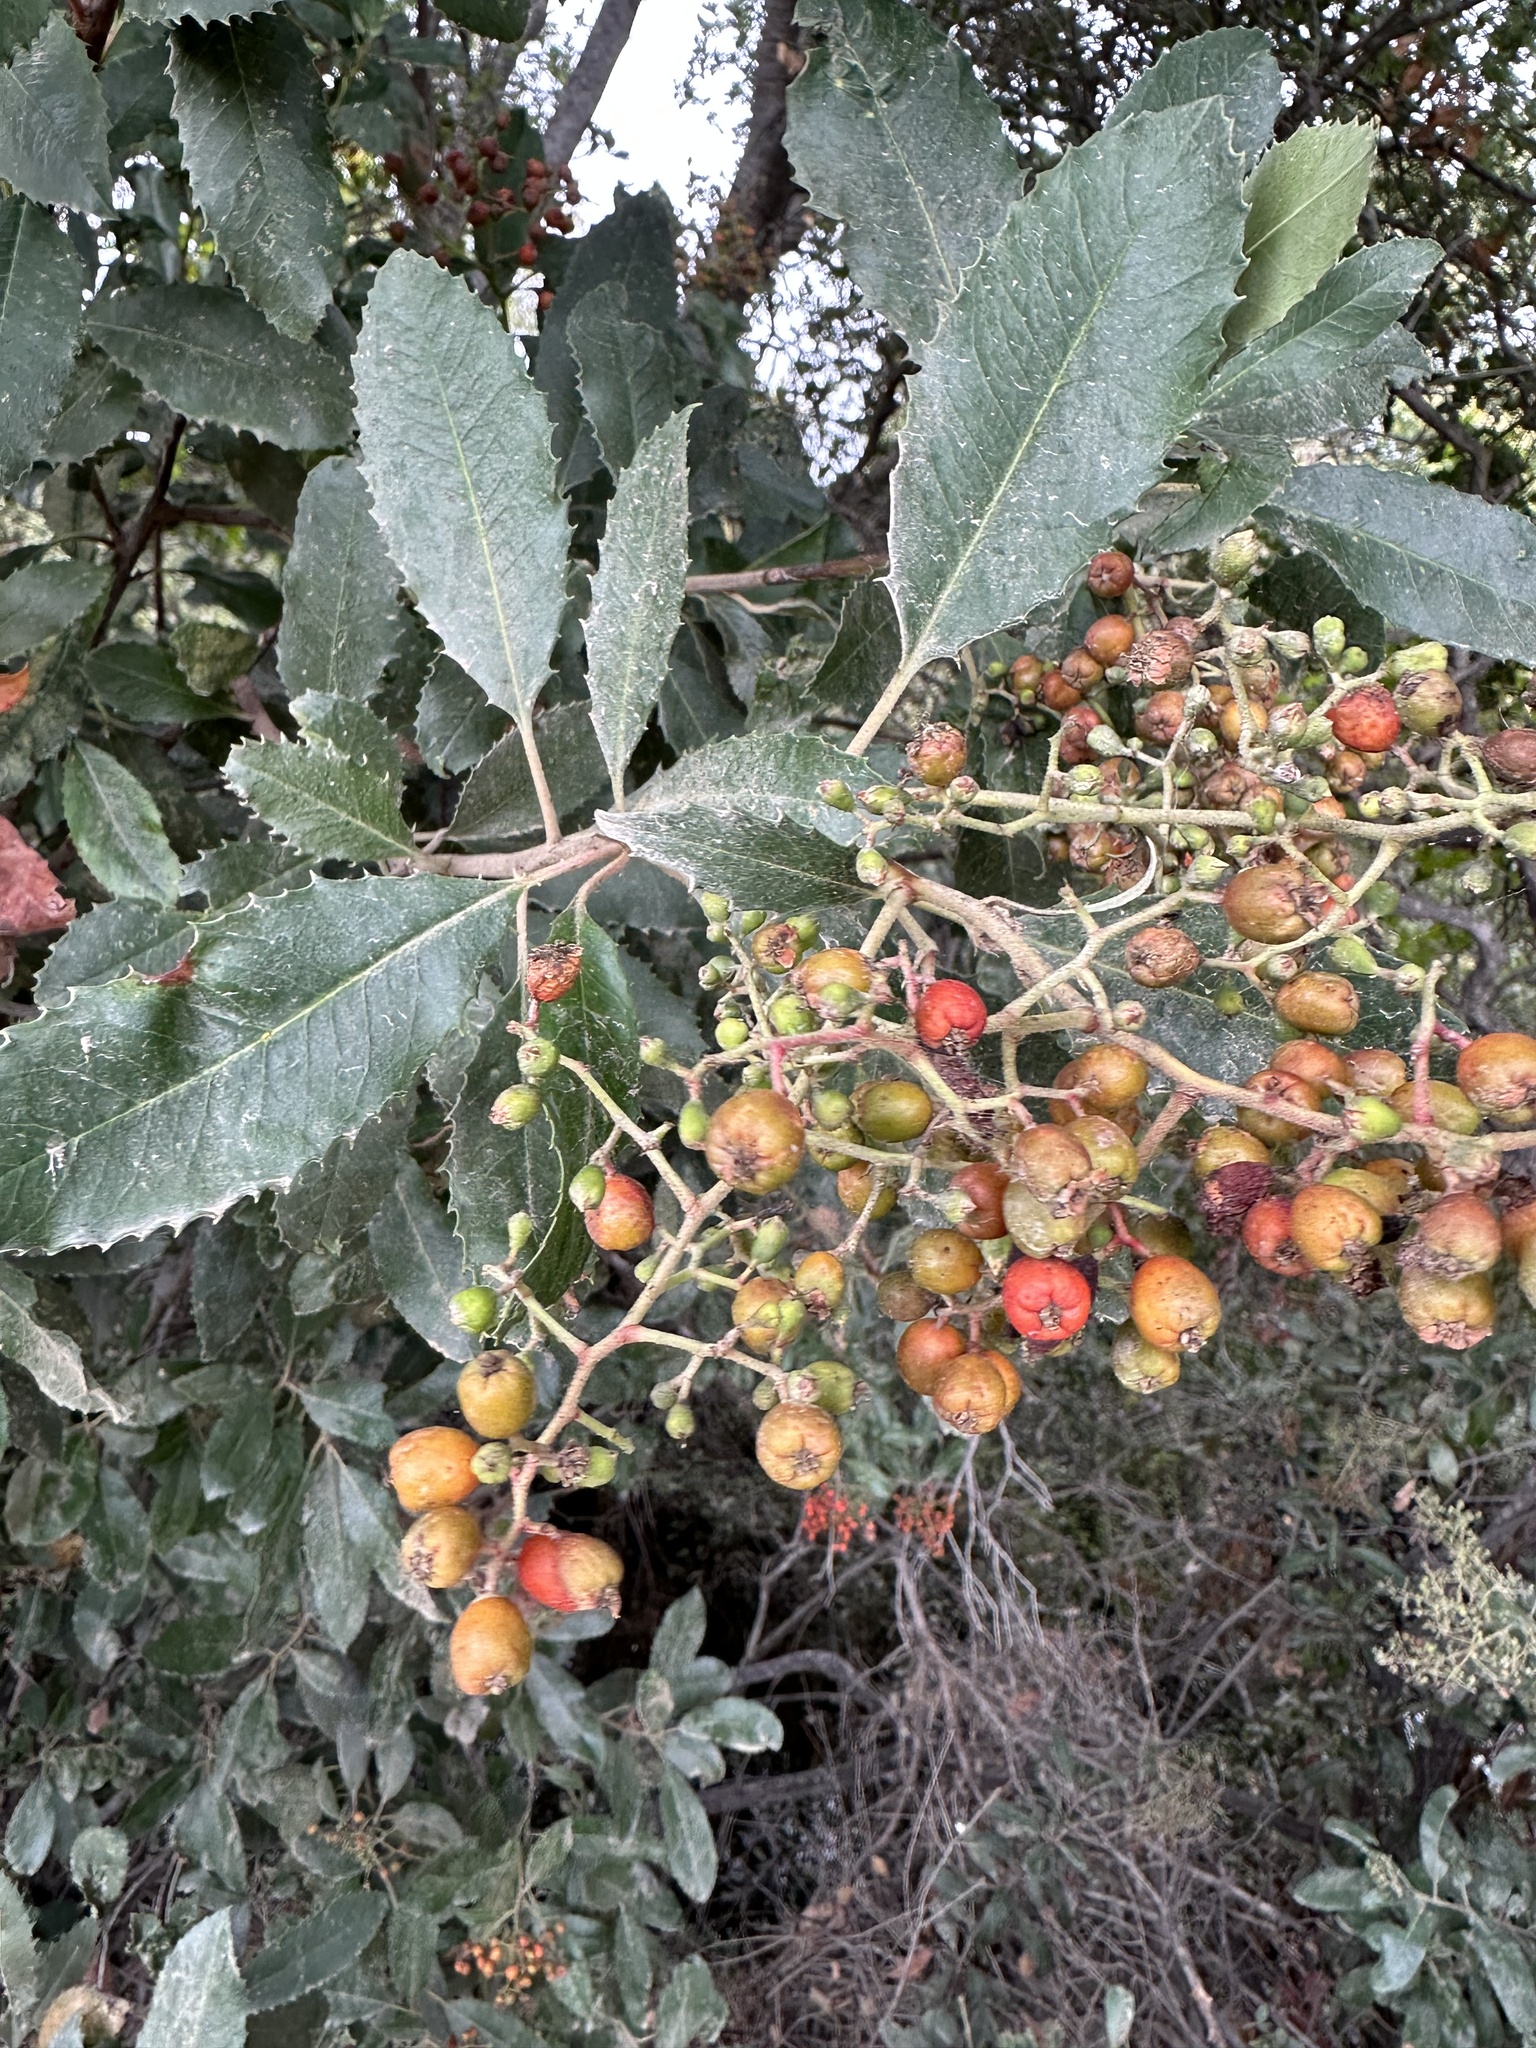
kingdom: Plantae
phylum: Tracheophyta
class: Magnoliopsida
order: Rosales
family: Rosaceae
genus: Heteromeles
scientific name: Heteromeles arbutifolia
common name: California-holly
